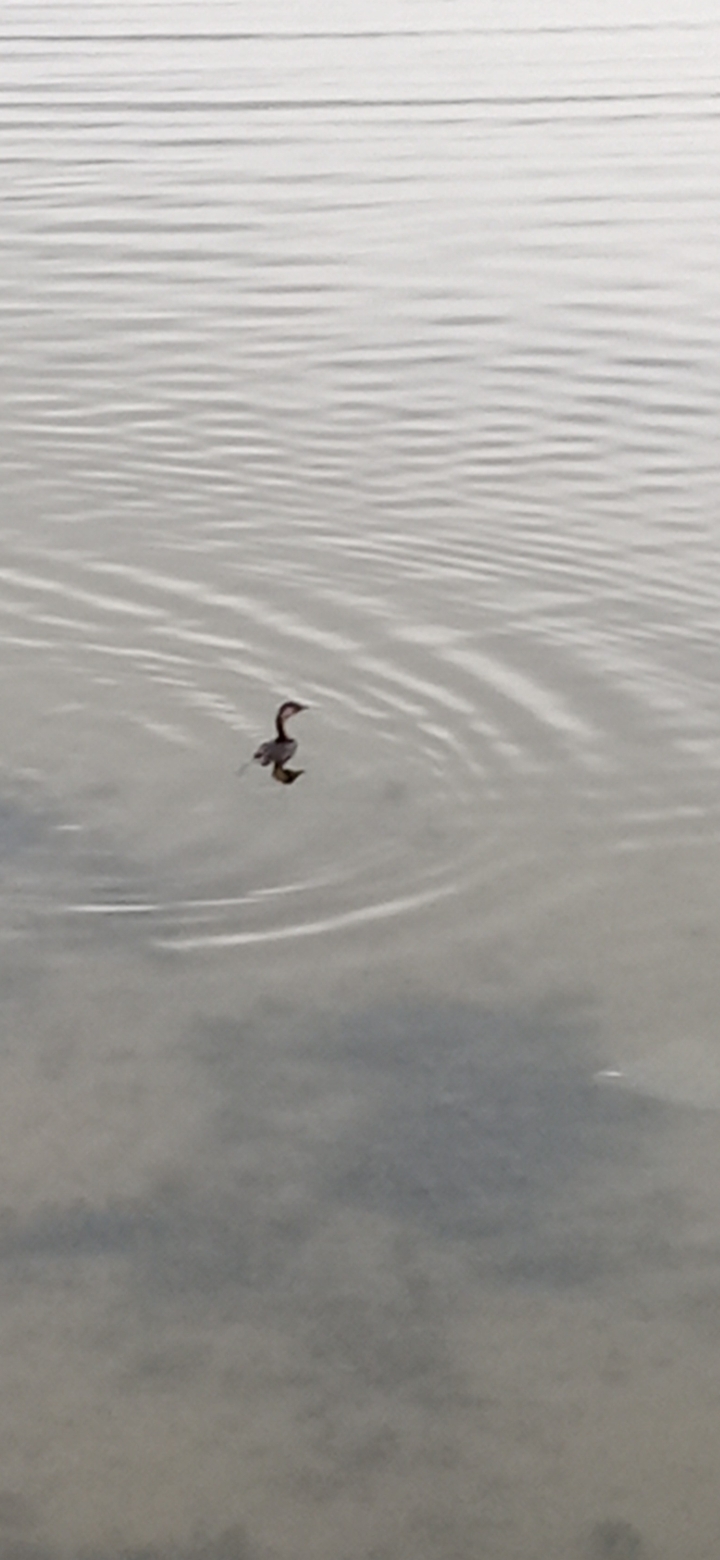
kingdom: Animalia
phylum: Chordata
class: Aves
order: Podicipediformes
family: Podicipedidae
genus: Rollandia
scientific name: Rollandia rolland
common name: White-tufted grebe
